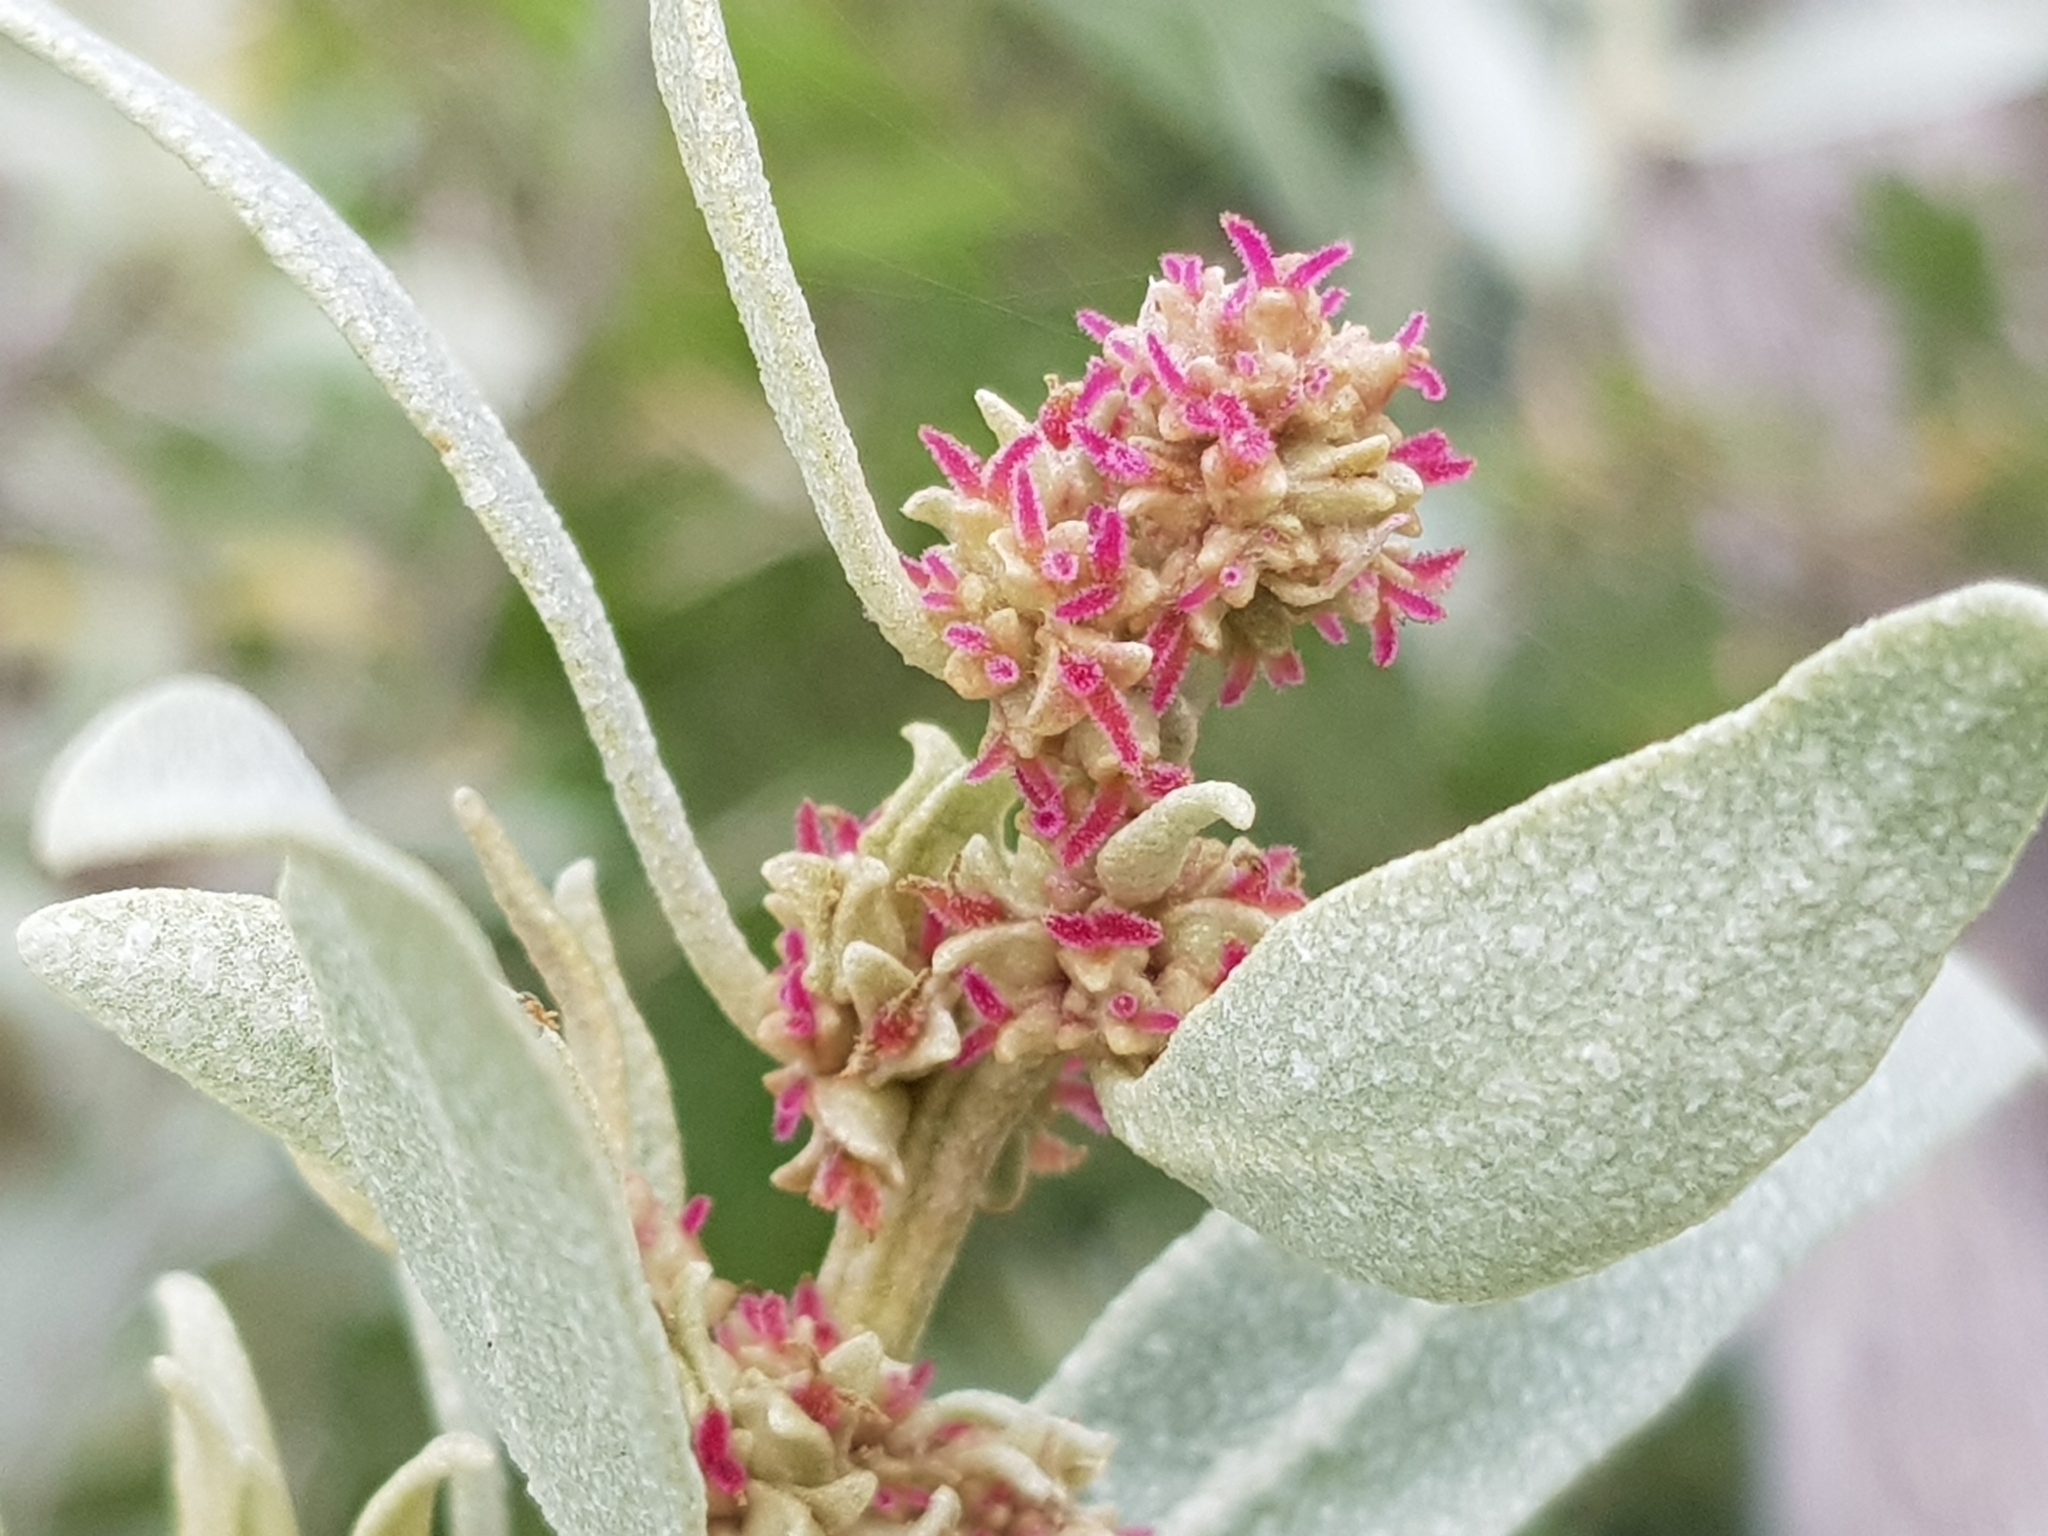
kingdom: Plantae
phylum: Tracheophyta
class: Magnoliopsida
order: Caryophyllales
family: Amaranthaceae
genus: Atriplex
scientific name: Atriplex cinerea
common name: Grey saltbush
